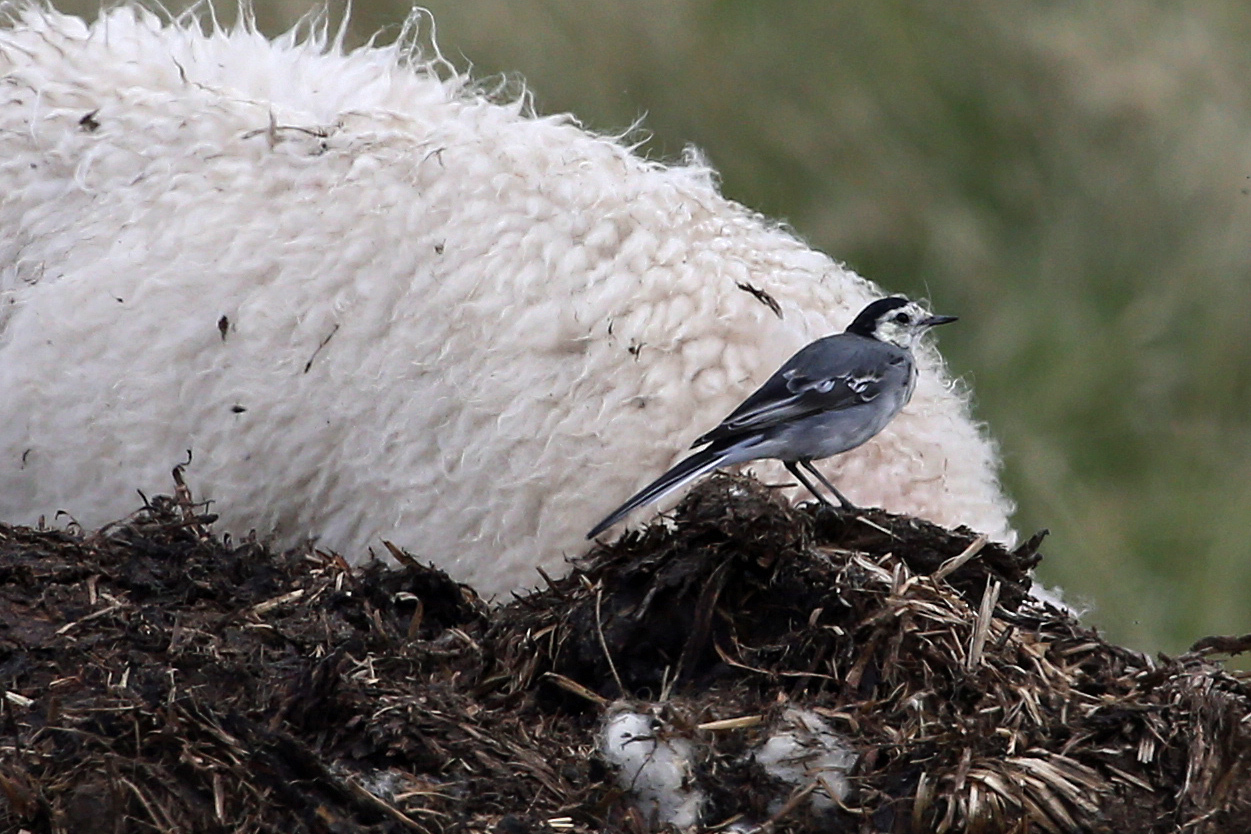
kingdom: Animalia
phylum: Chordata
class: Aves
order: Passeriformes
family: Motacillidae
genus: Motacilla
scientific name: Motacilla alba
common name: White wagtail
